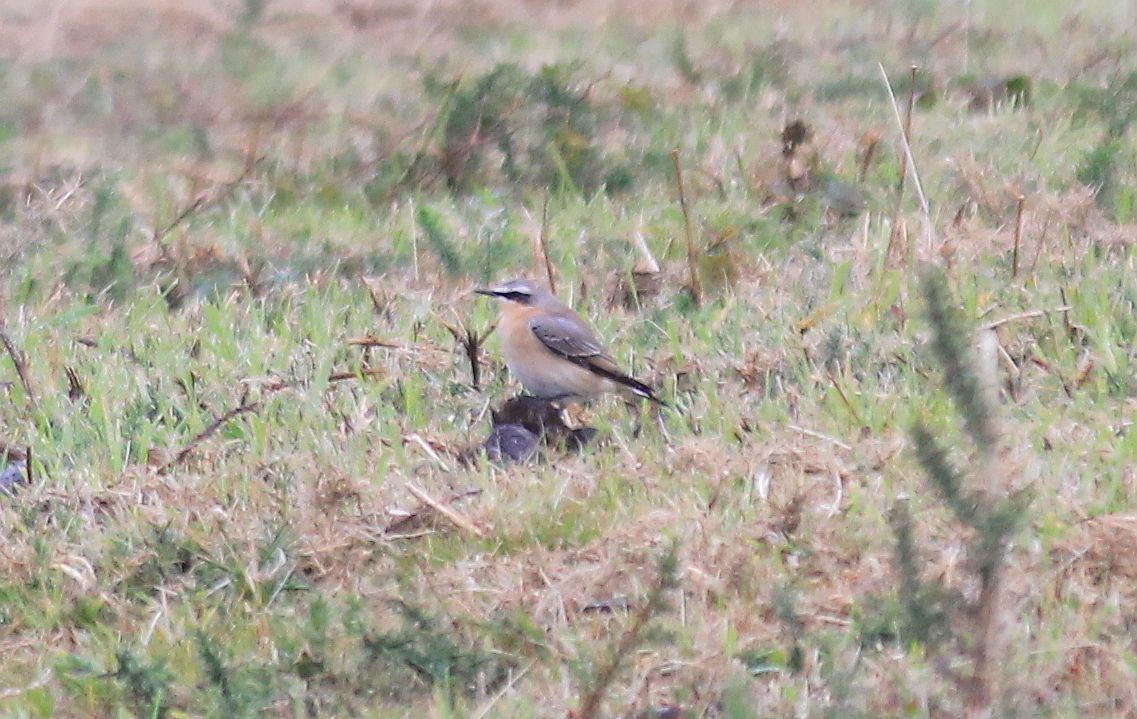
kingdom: Animalia
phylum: Chordata
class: Aves
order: Passeriformes
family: Muscicapidae
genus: Oenanthe
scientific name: Oenanthe oenanthe
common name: Northern wheatear
